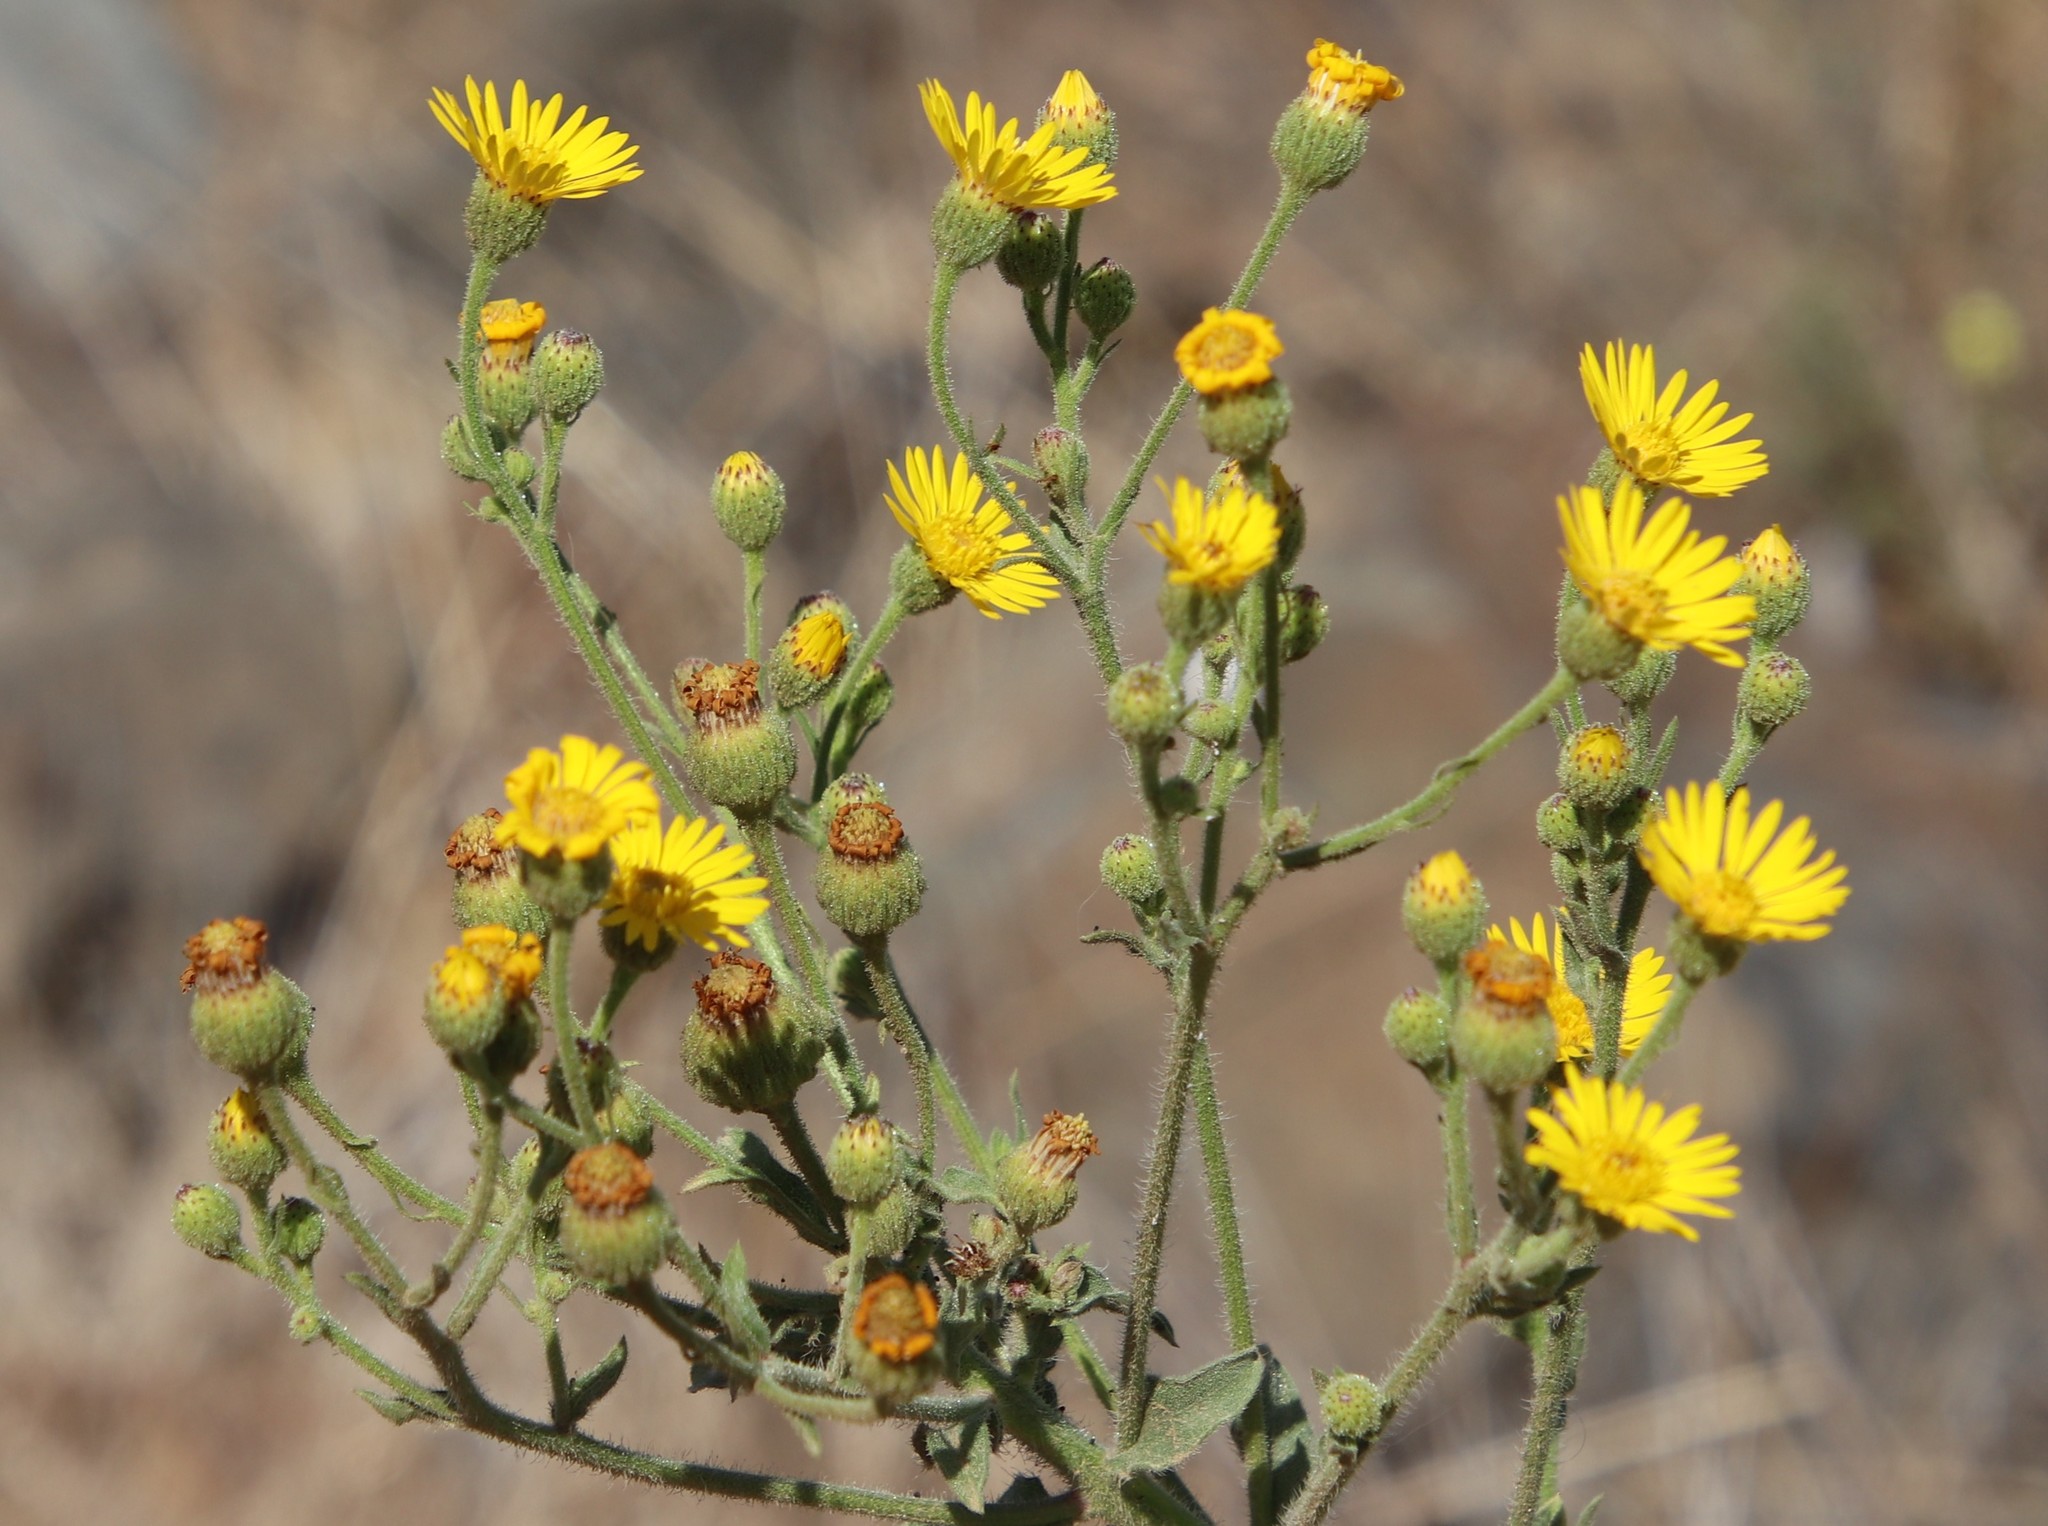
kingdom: Plantae
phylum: Tracheophyta
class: Magnoliopsida
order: Asterales
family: Asteraceae
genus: Heterotheca
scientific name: Heterotheca grandiflora
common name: Telegraphweed
